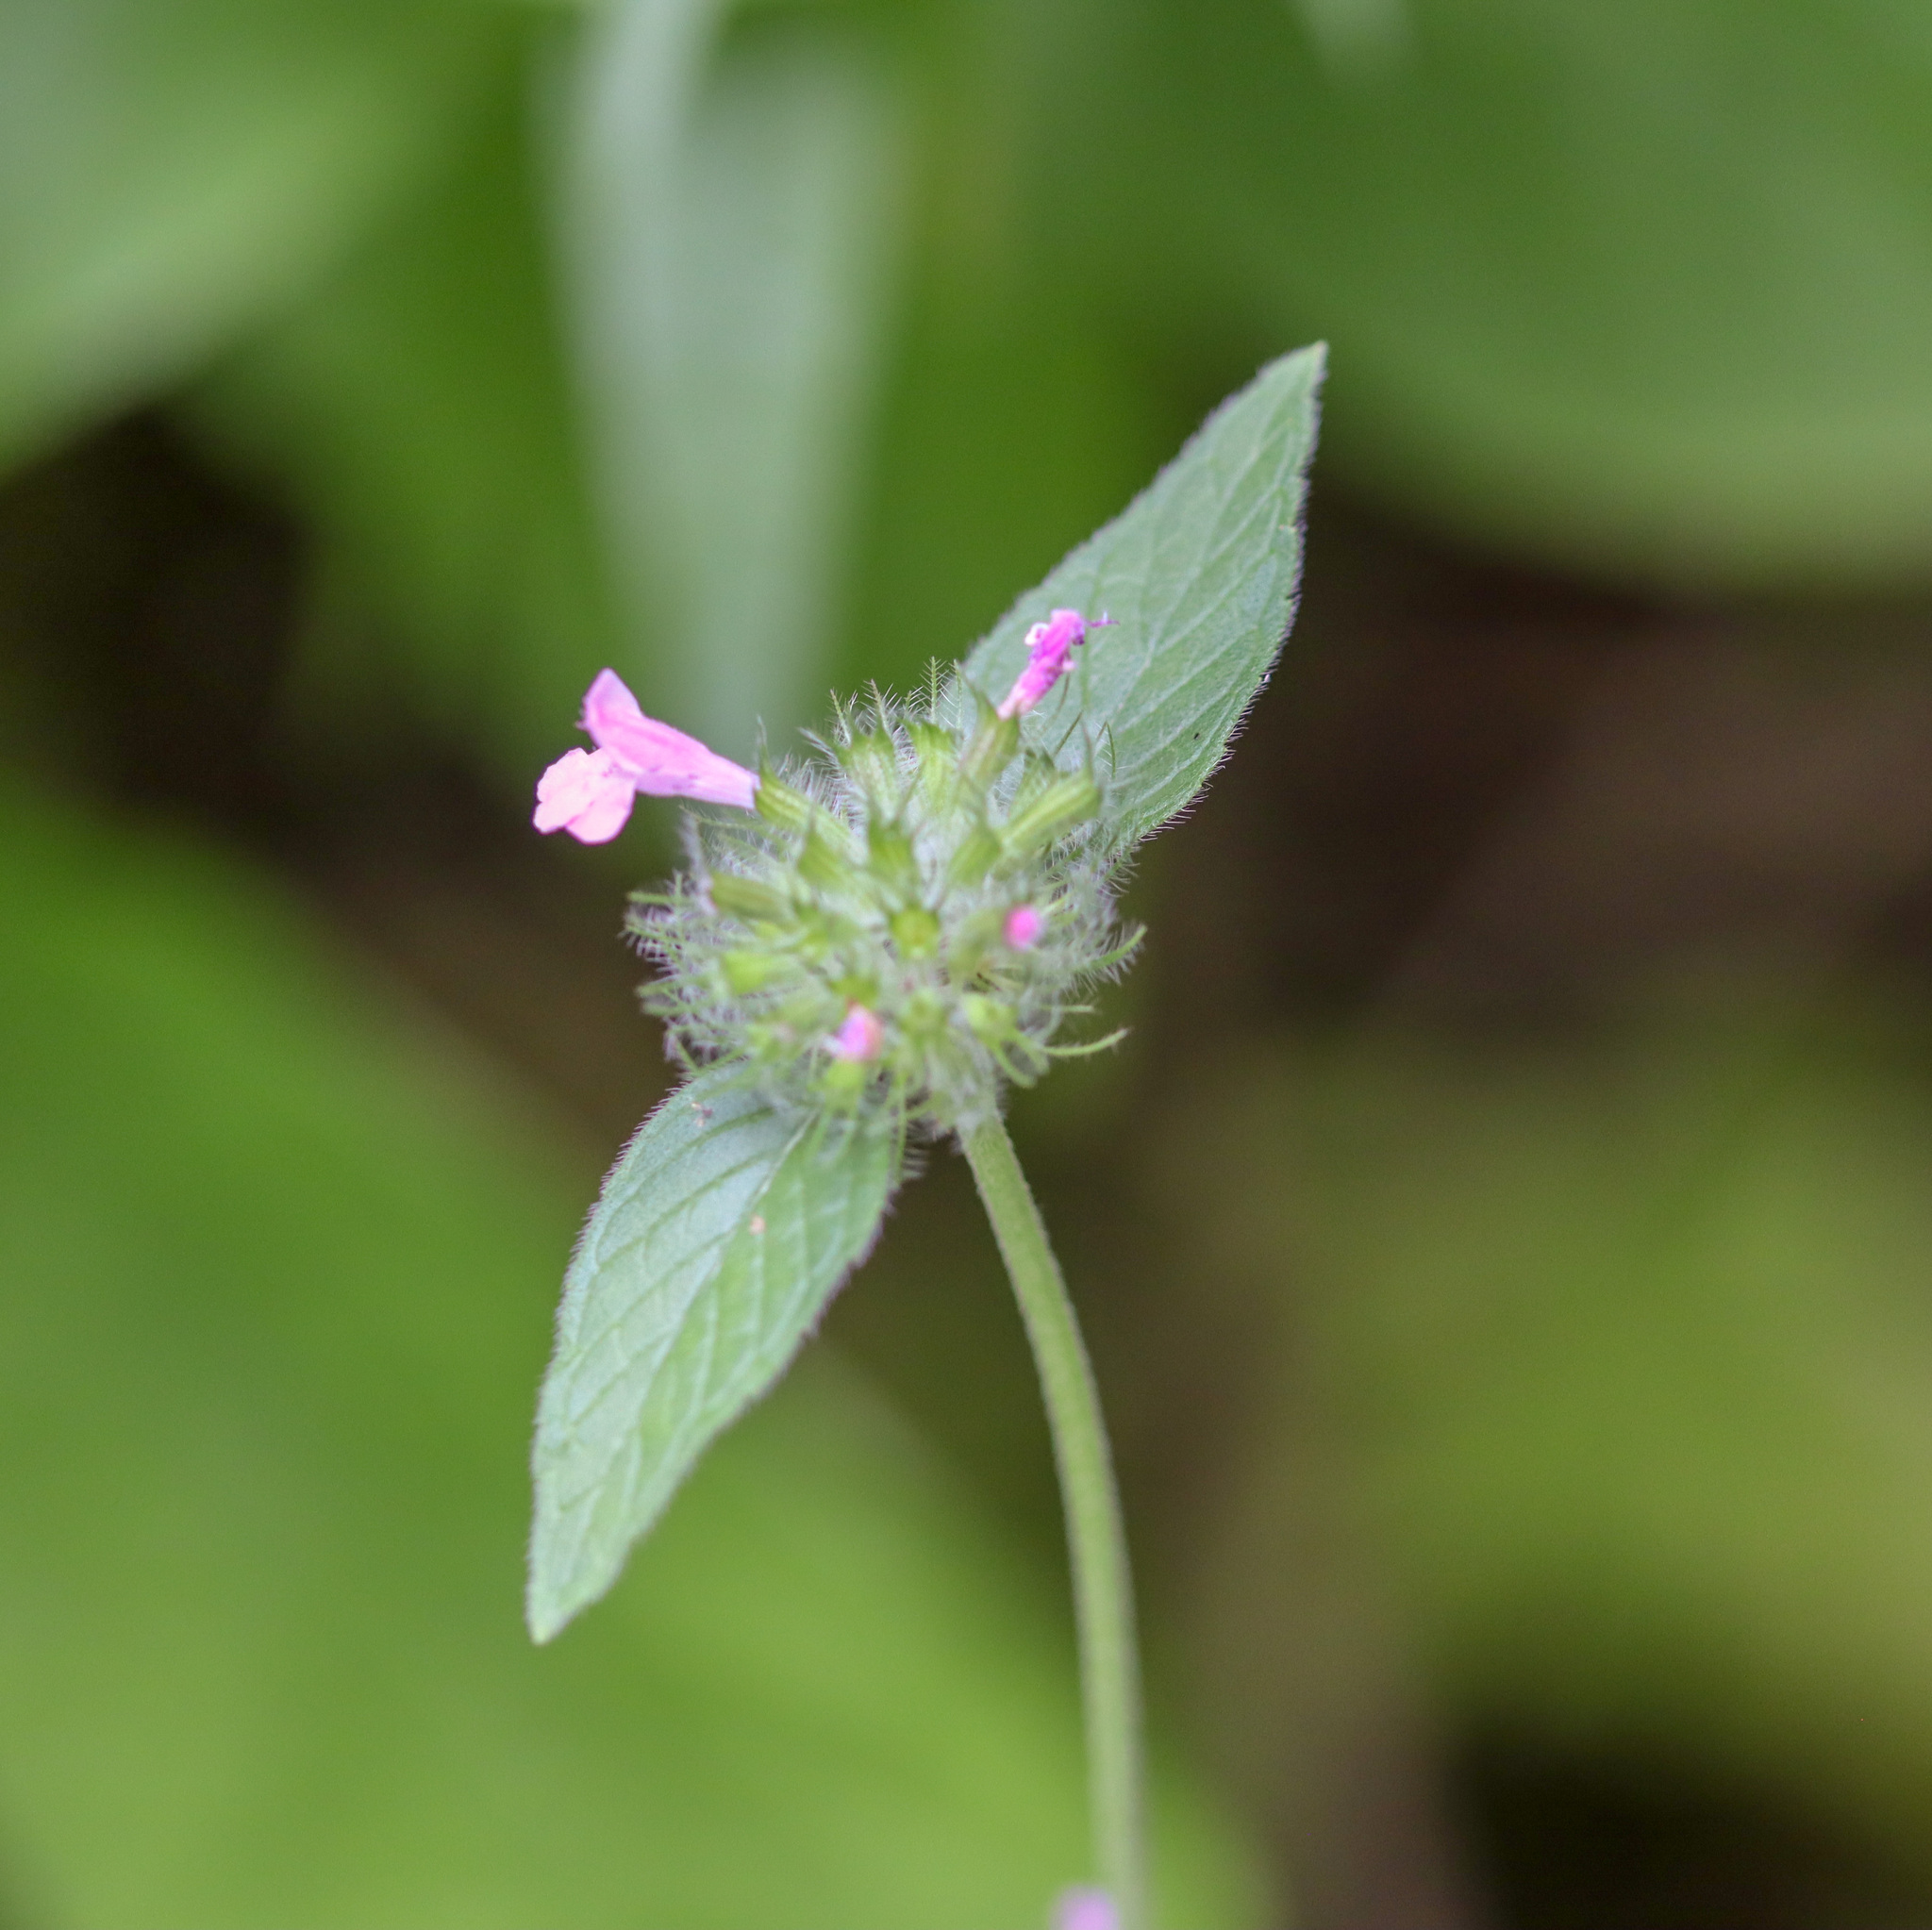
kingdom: Plantae
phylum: Tracheophyta
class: Magnoliopsida
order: Lamiales
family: Lamiaceae
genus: Clinopodium
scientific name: Clinopodium vulgare
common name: Wild basil
